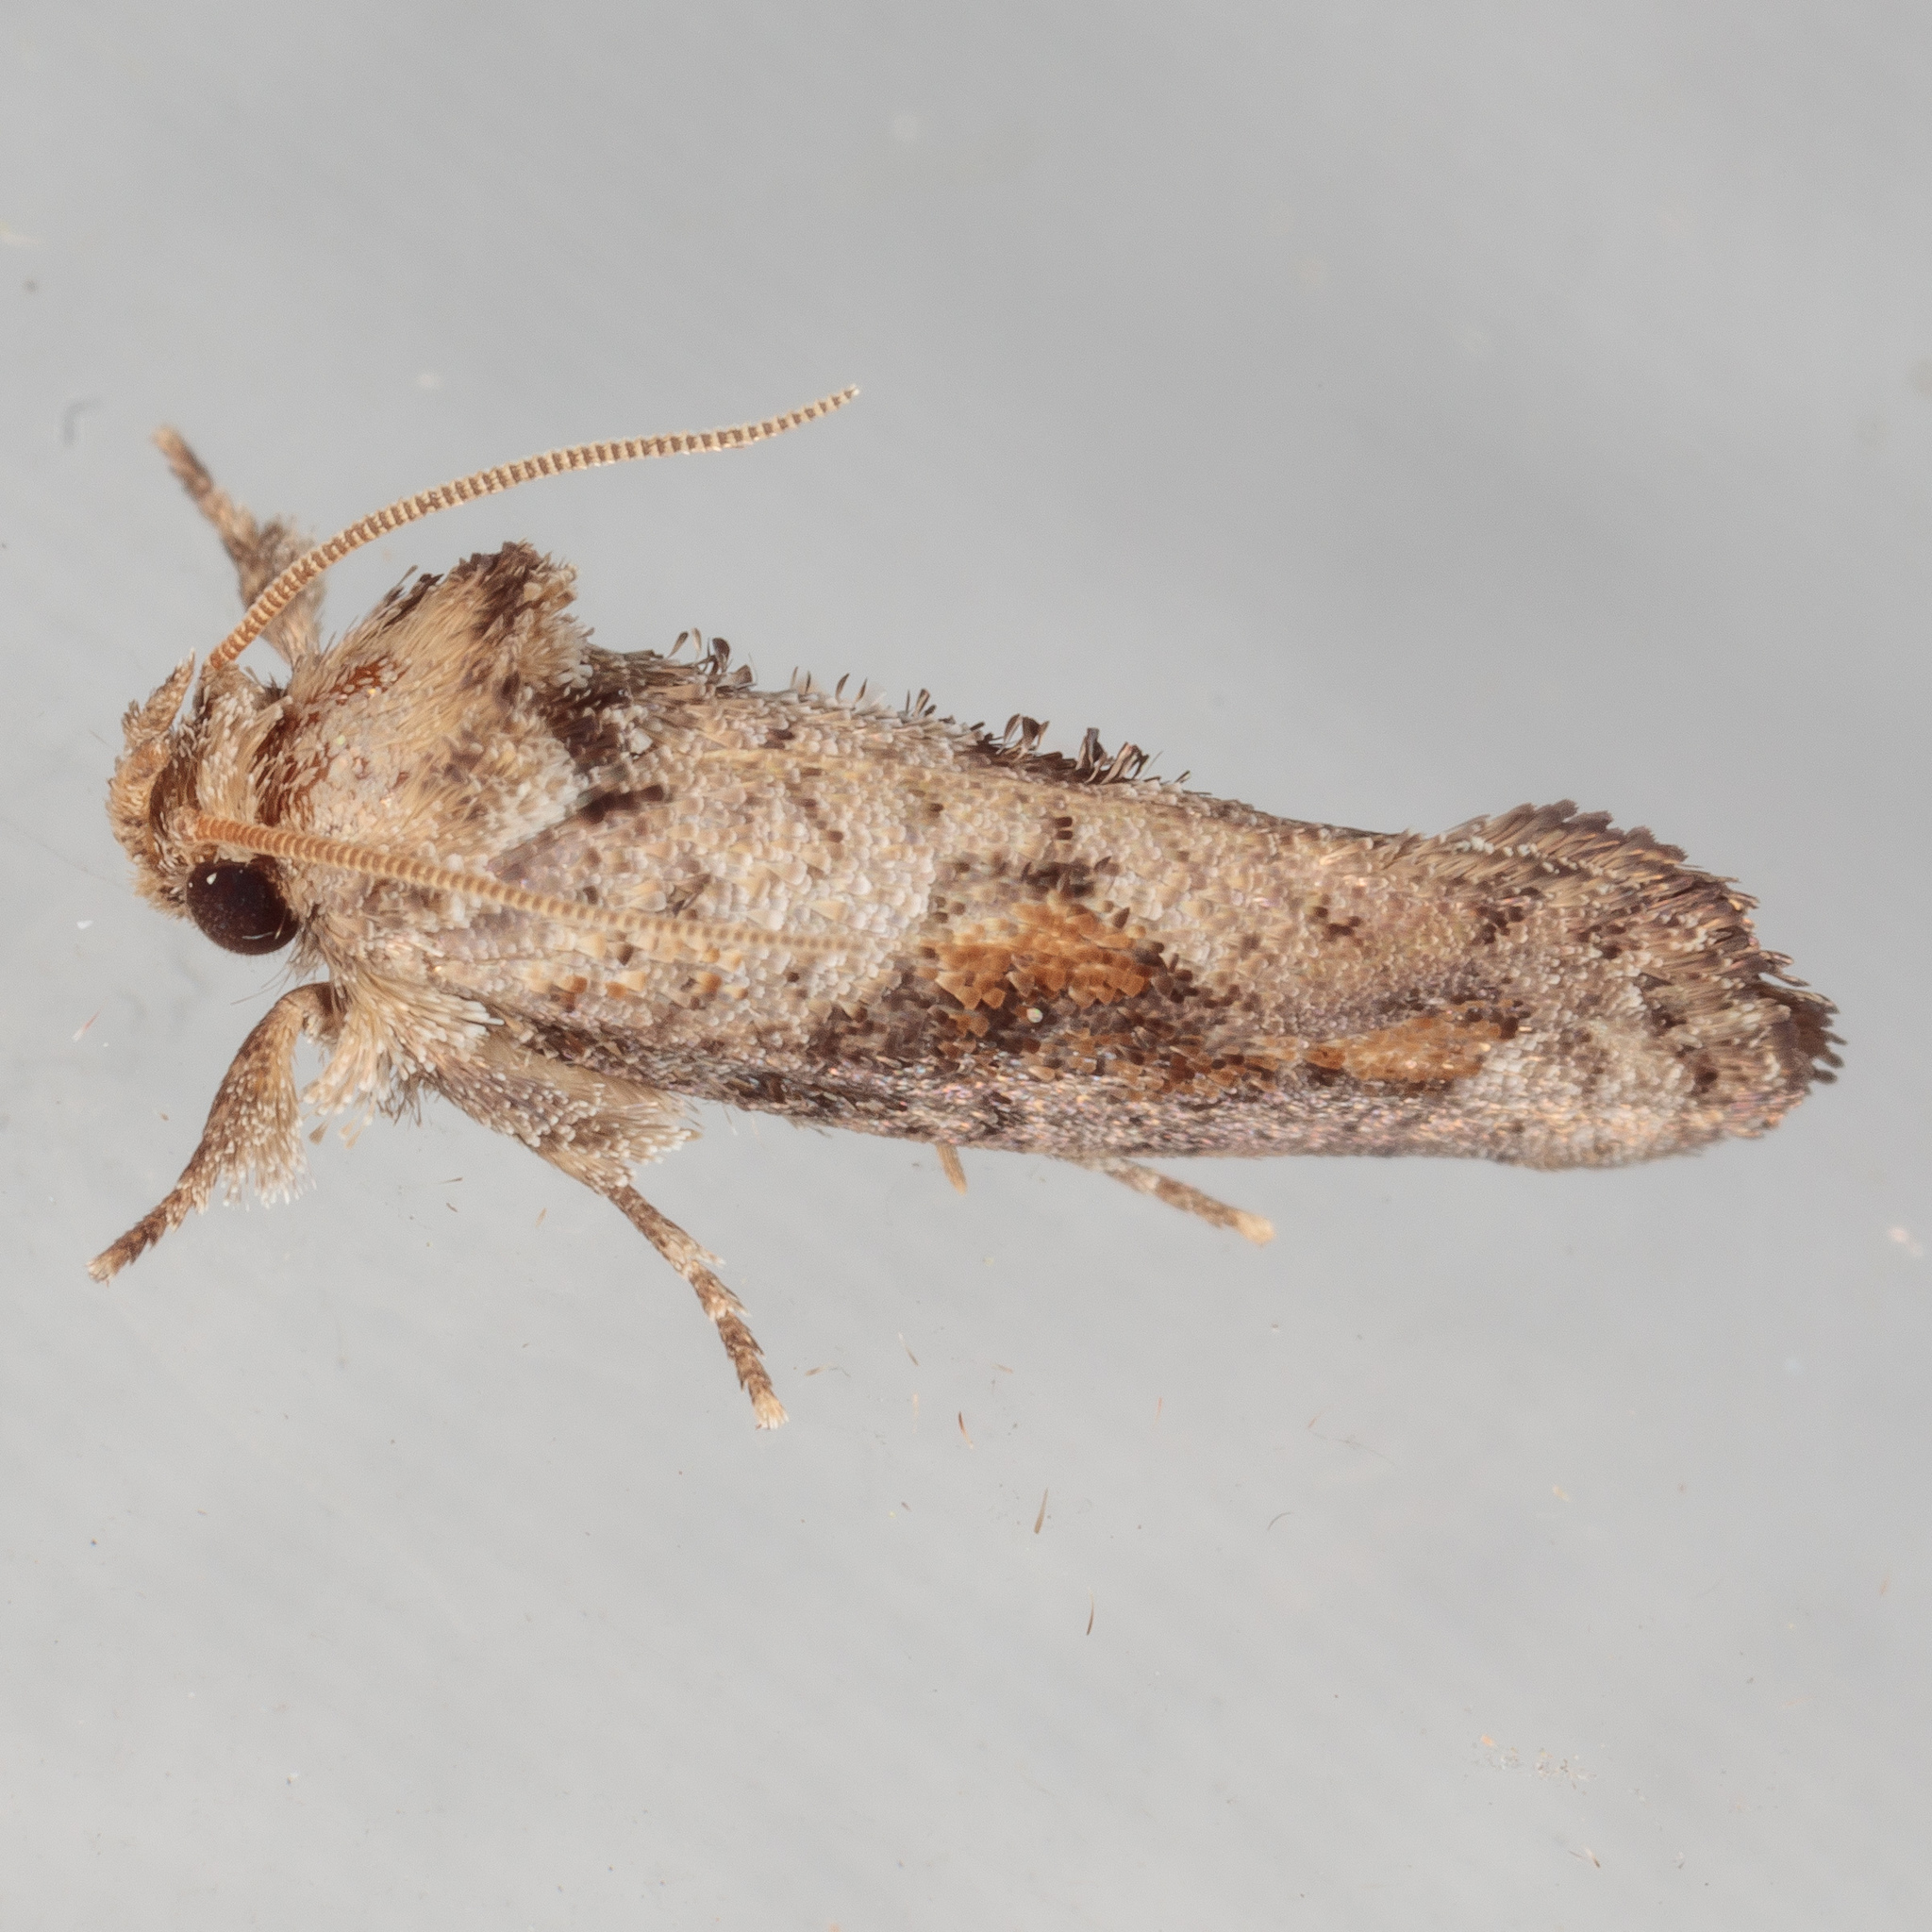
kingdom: Animalia
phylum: Arthropoda
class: Insecta
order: Lepidoptera
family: Tineidae
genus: Acrolophus
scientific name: Acrolophus piger
